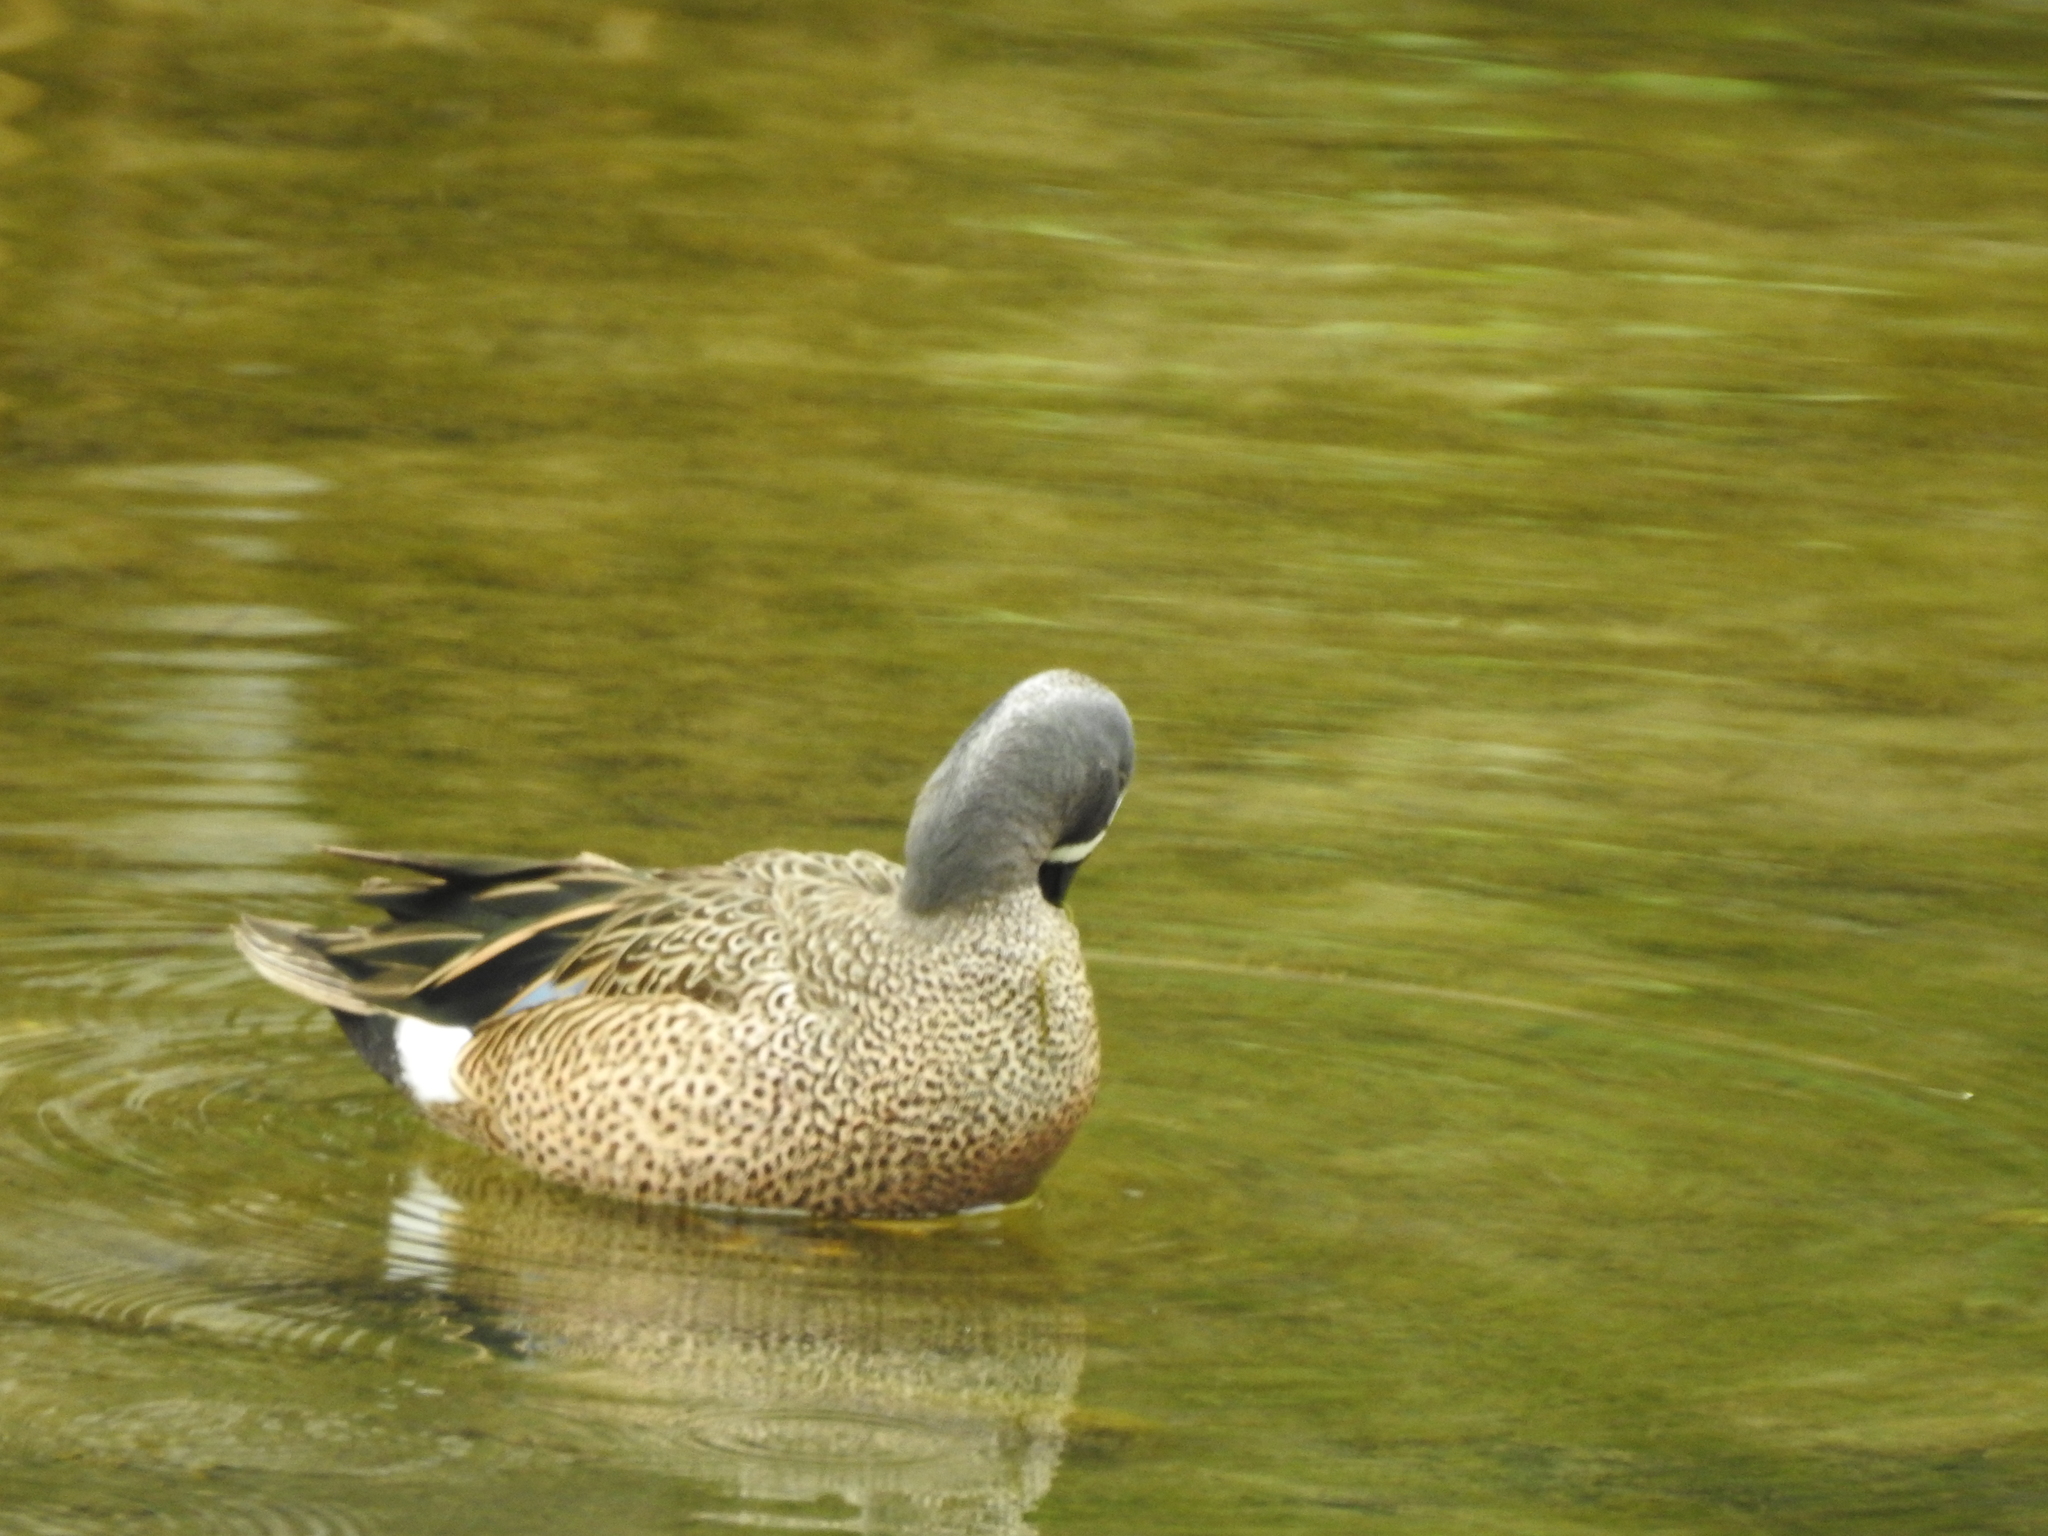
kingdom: Animalia
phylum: Chordata
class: Aves
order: Anseriformes
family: Anatidae
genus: Spatula
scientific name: Spatula discors
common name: Blue-winged teal
